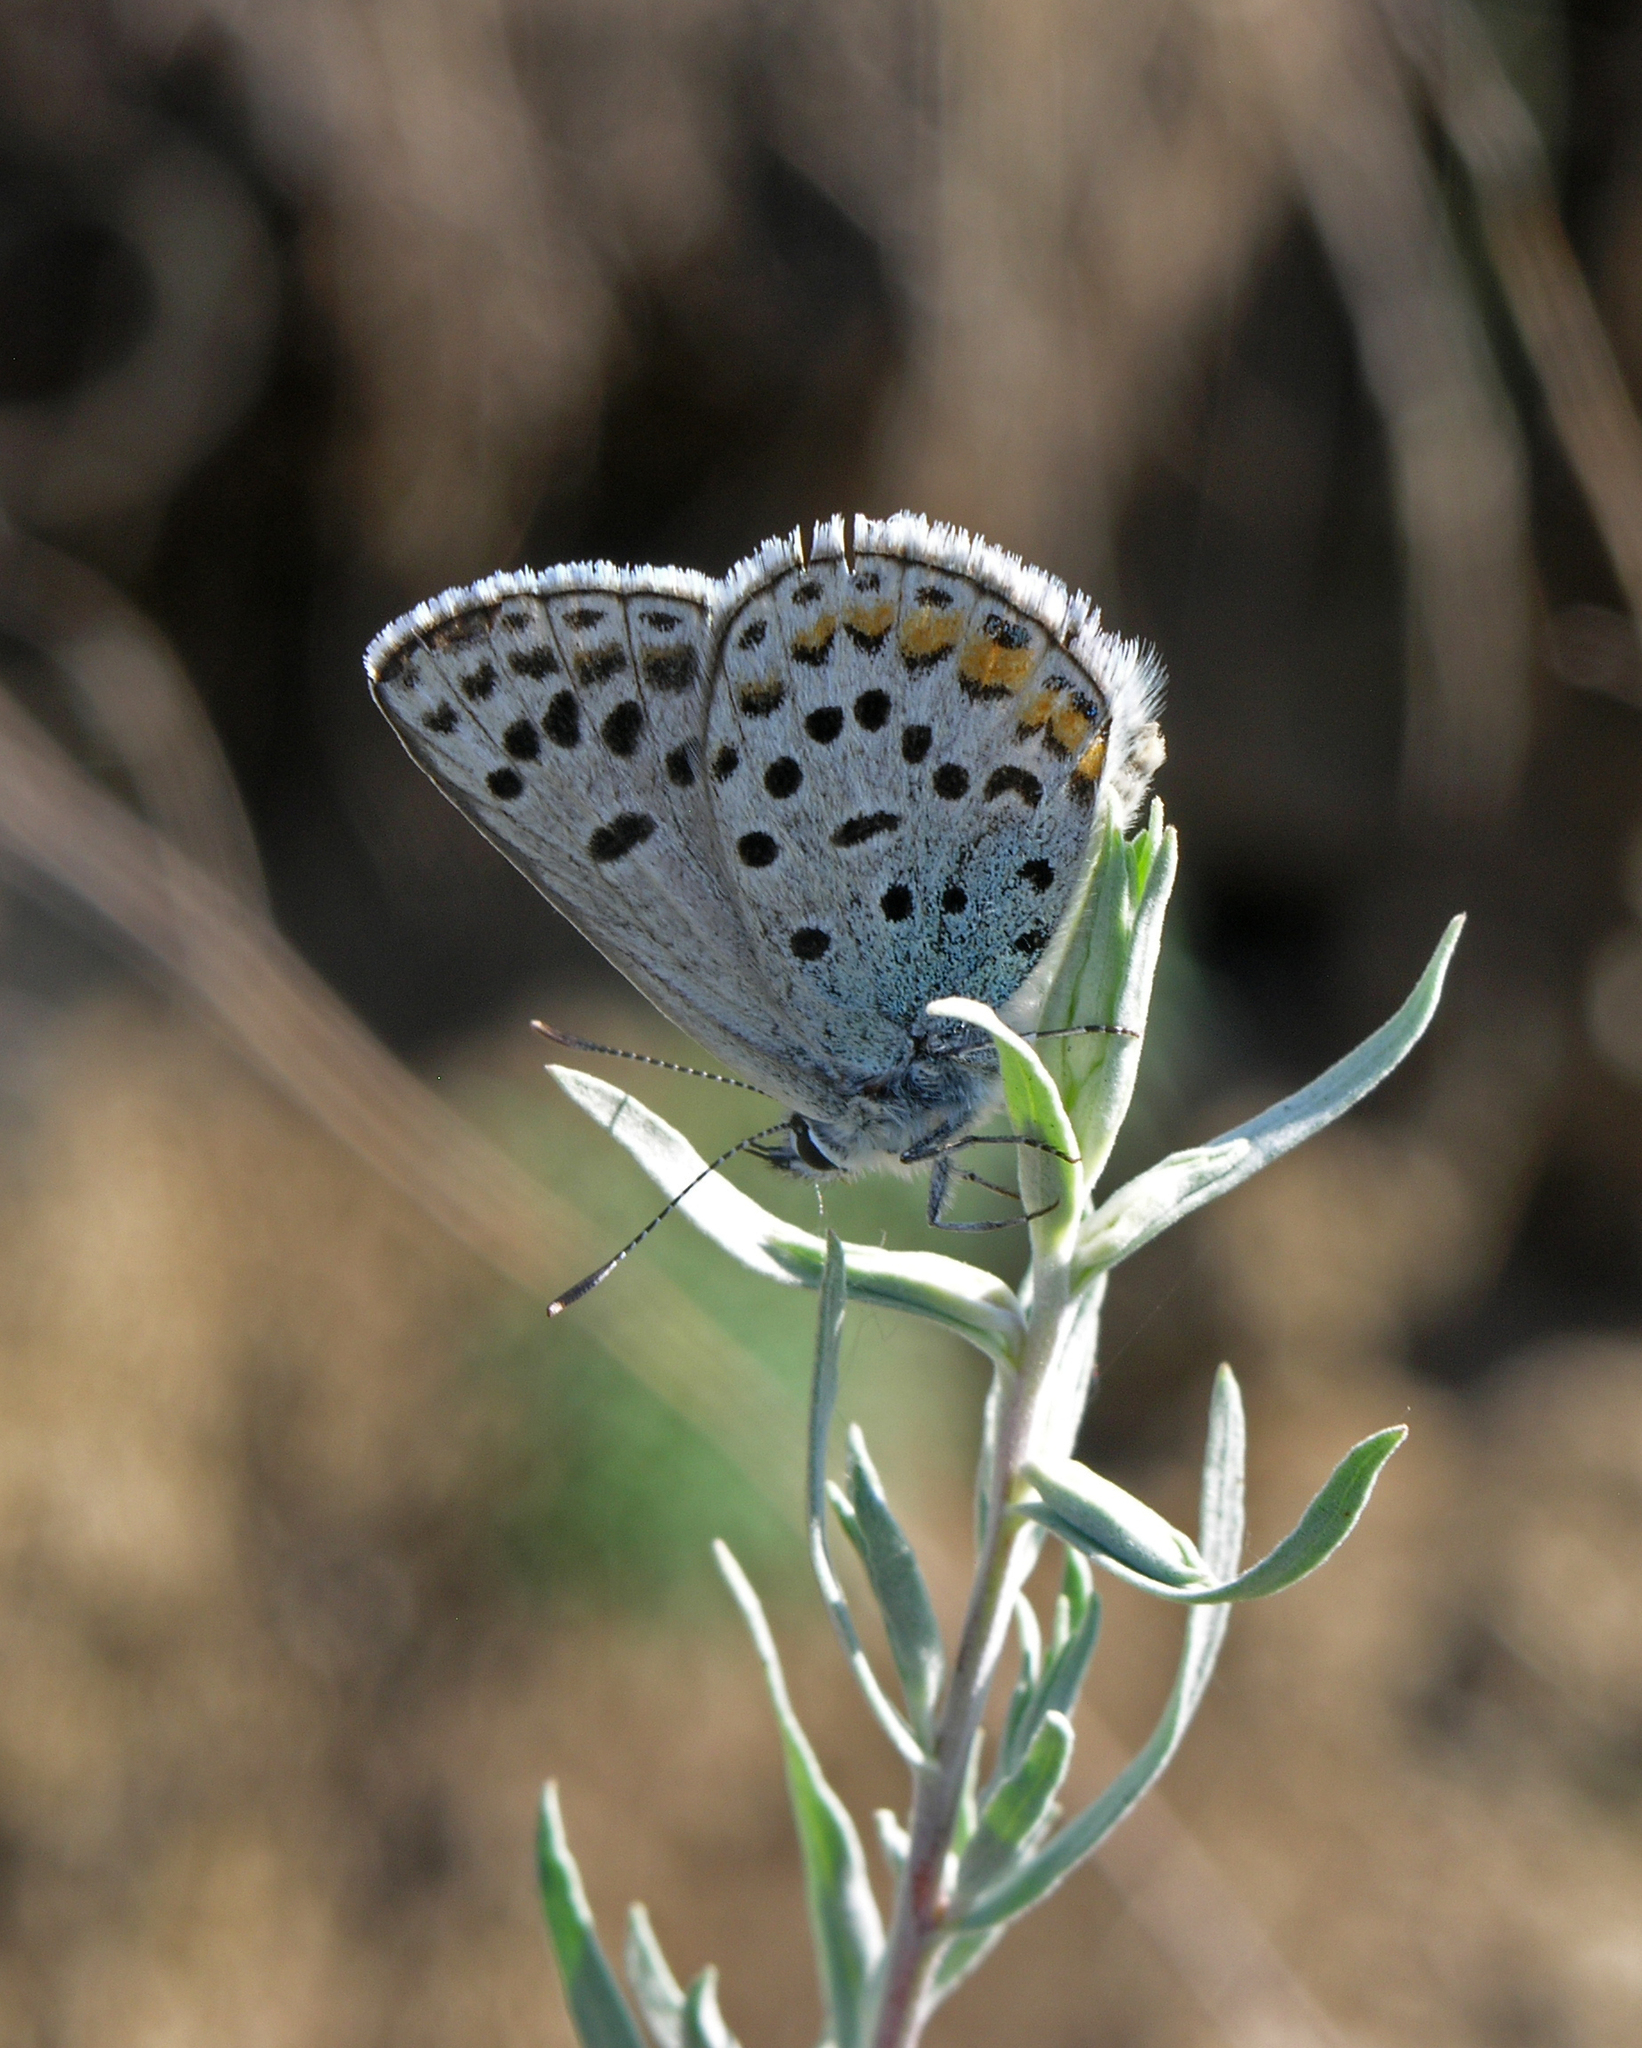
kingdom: Animalia
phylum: Arthropoda
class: Insecta
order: Lepidoptera
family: Lycaenidae
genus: Glabroculus
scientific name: Glabroculus cyane
